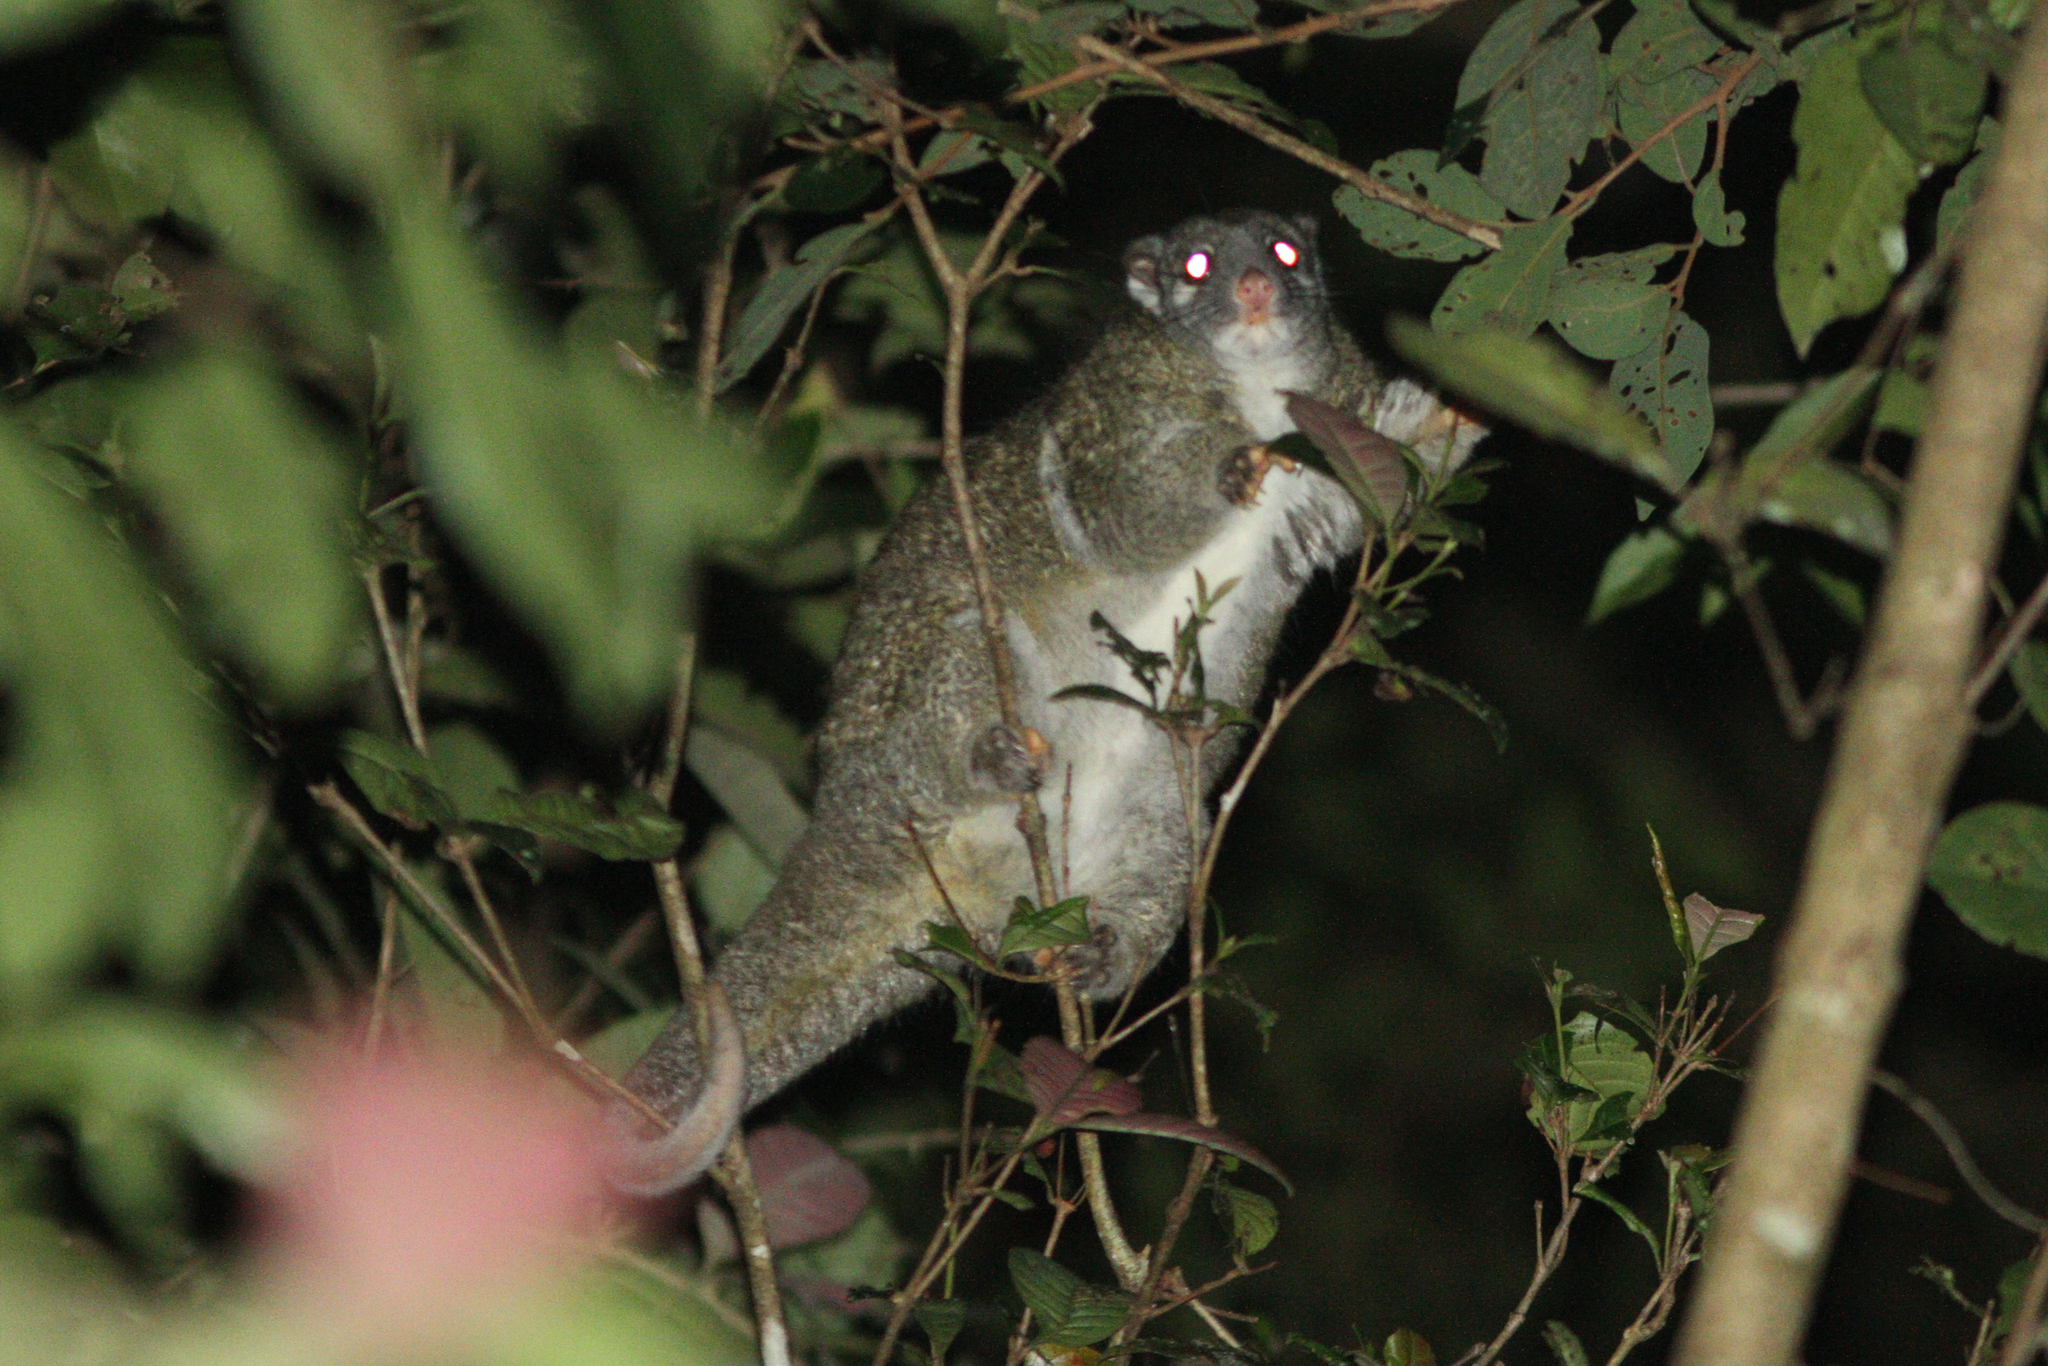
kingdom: Animalia
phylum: Chordata
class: Mammalia
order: Diprotodontia
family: Pseudocheiridae
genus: Pseudochirops
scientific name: Pseudochirops archeri
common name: Green ringtail
